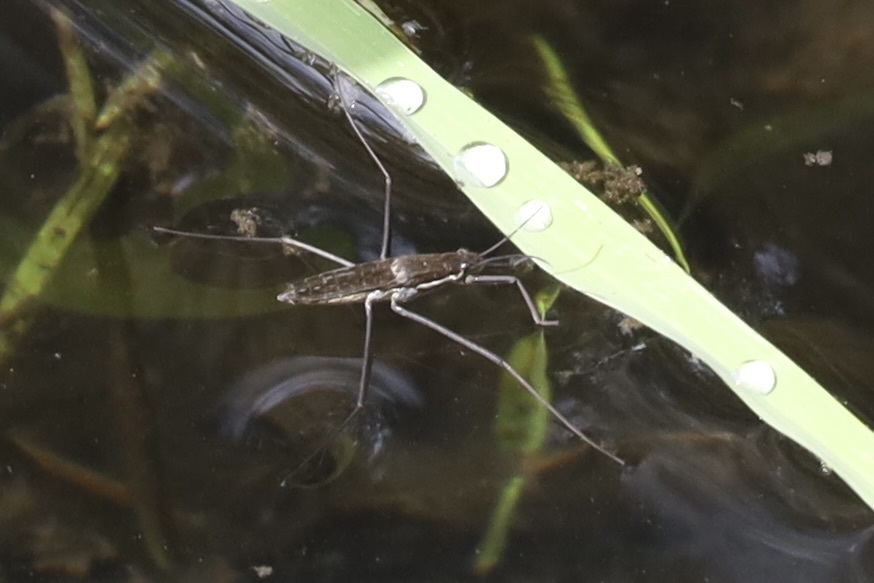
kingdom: Animalia
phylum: Arthropoda
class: Insecta
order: Hemiptera
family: Gerridae
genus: Aquarius
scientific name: Aquarius remigis
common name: Common water strider
